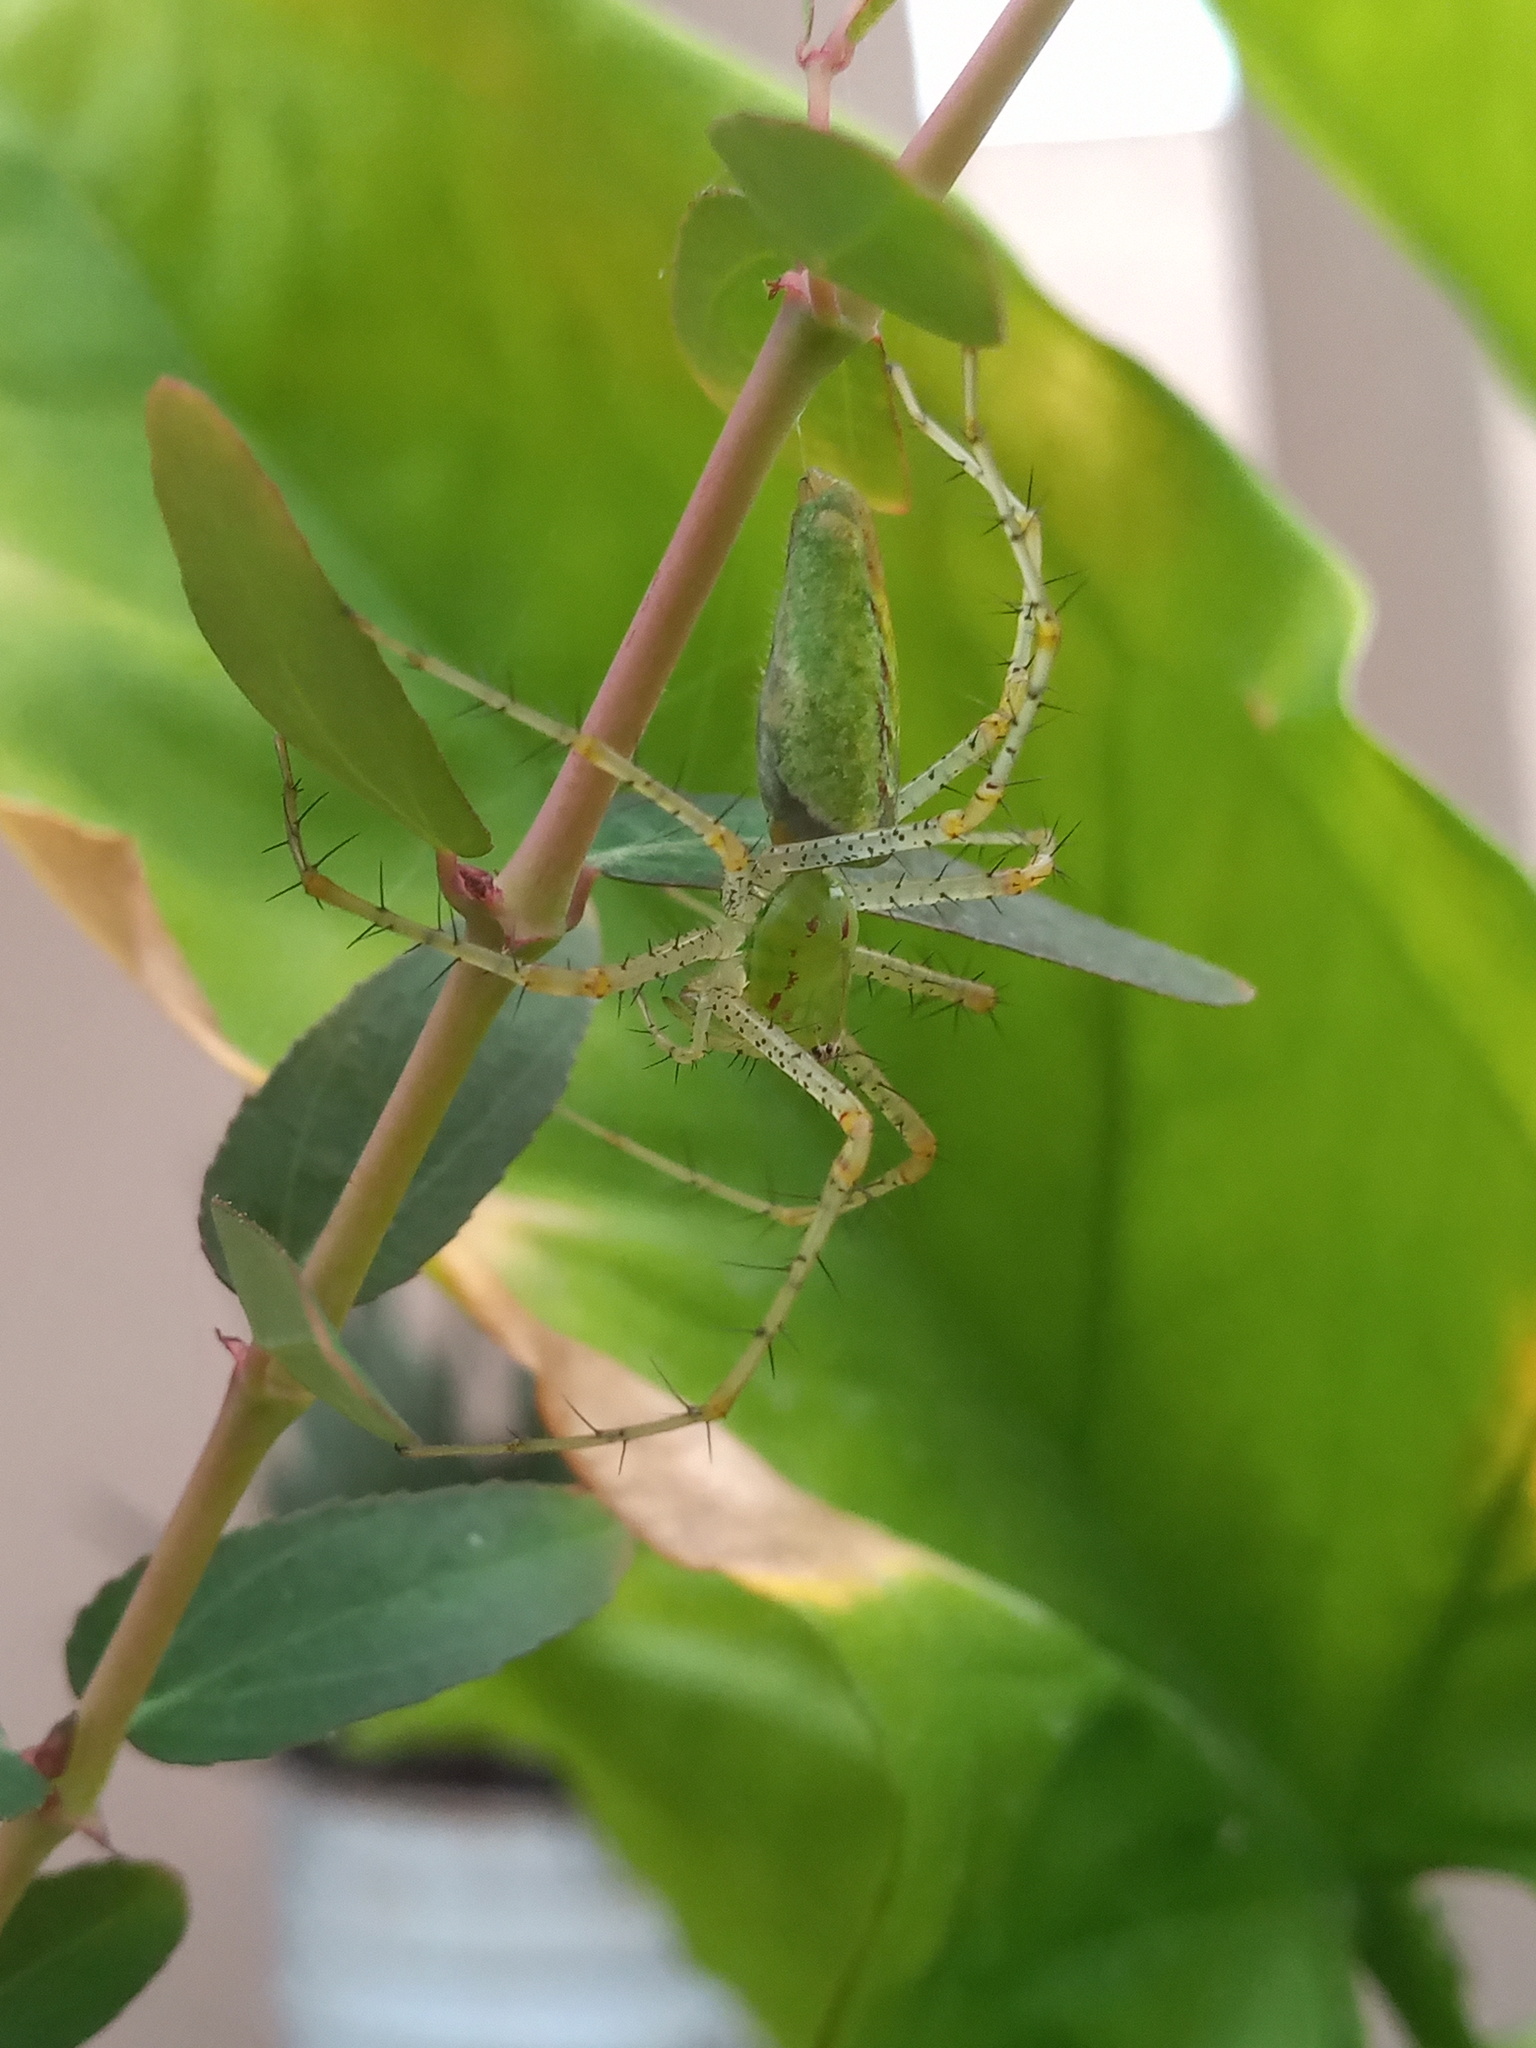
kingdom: Animalia
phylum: Arthropoda
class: Arachnida
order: Araneae
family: Oxyopidae
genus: Peucetia
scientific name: Peucetia viridans
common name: Lynx spiders
